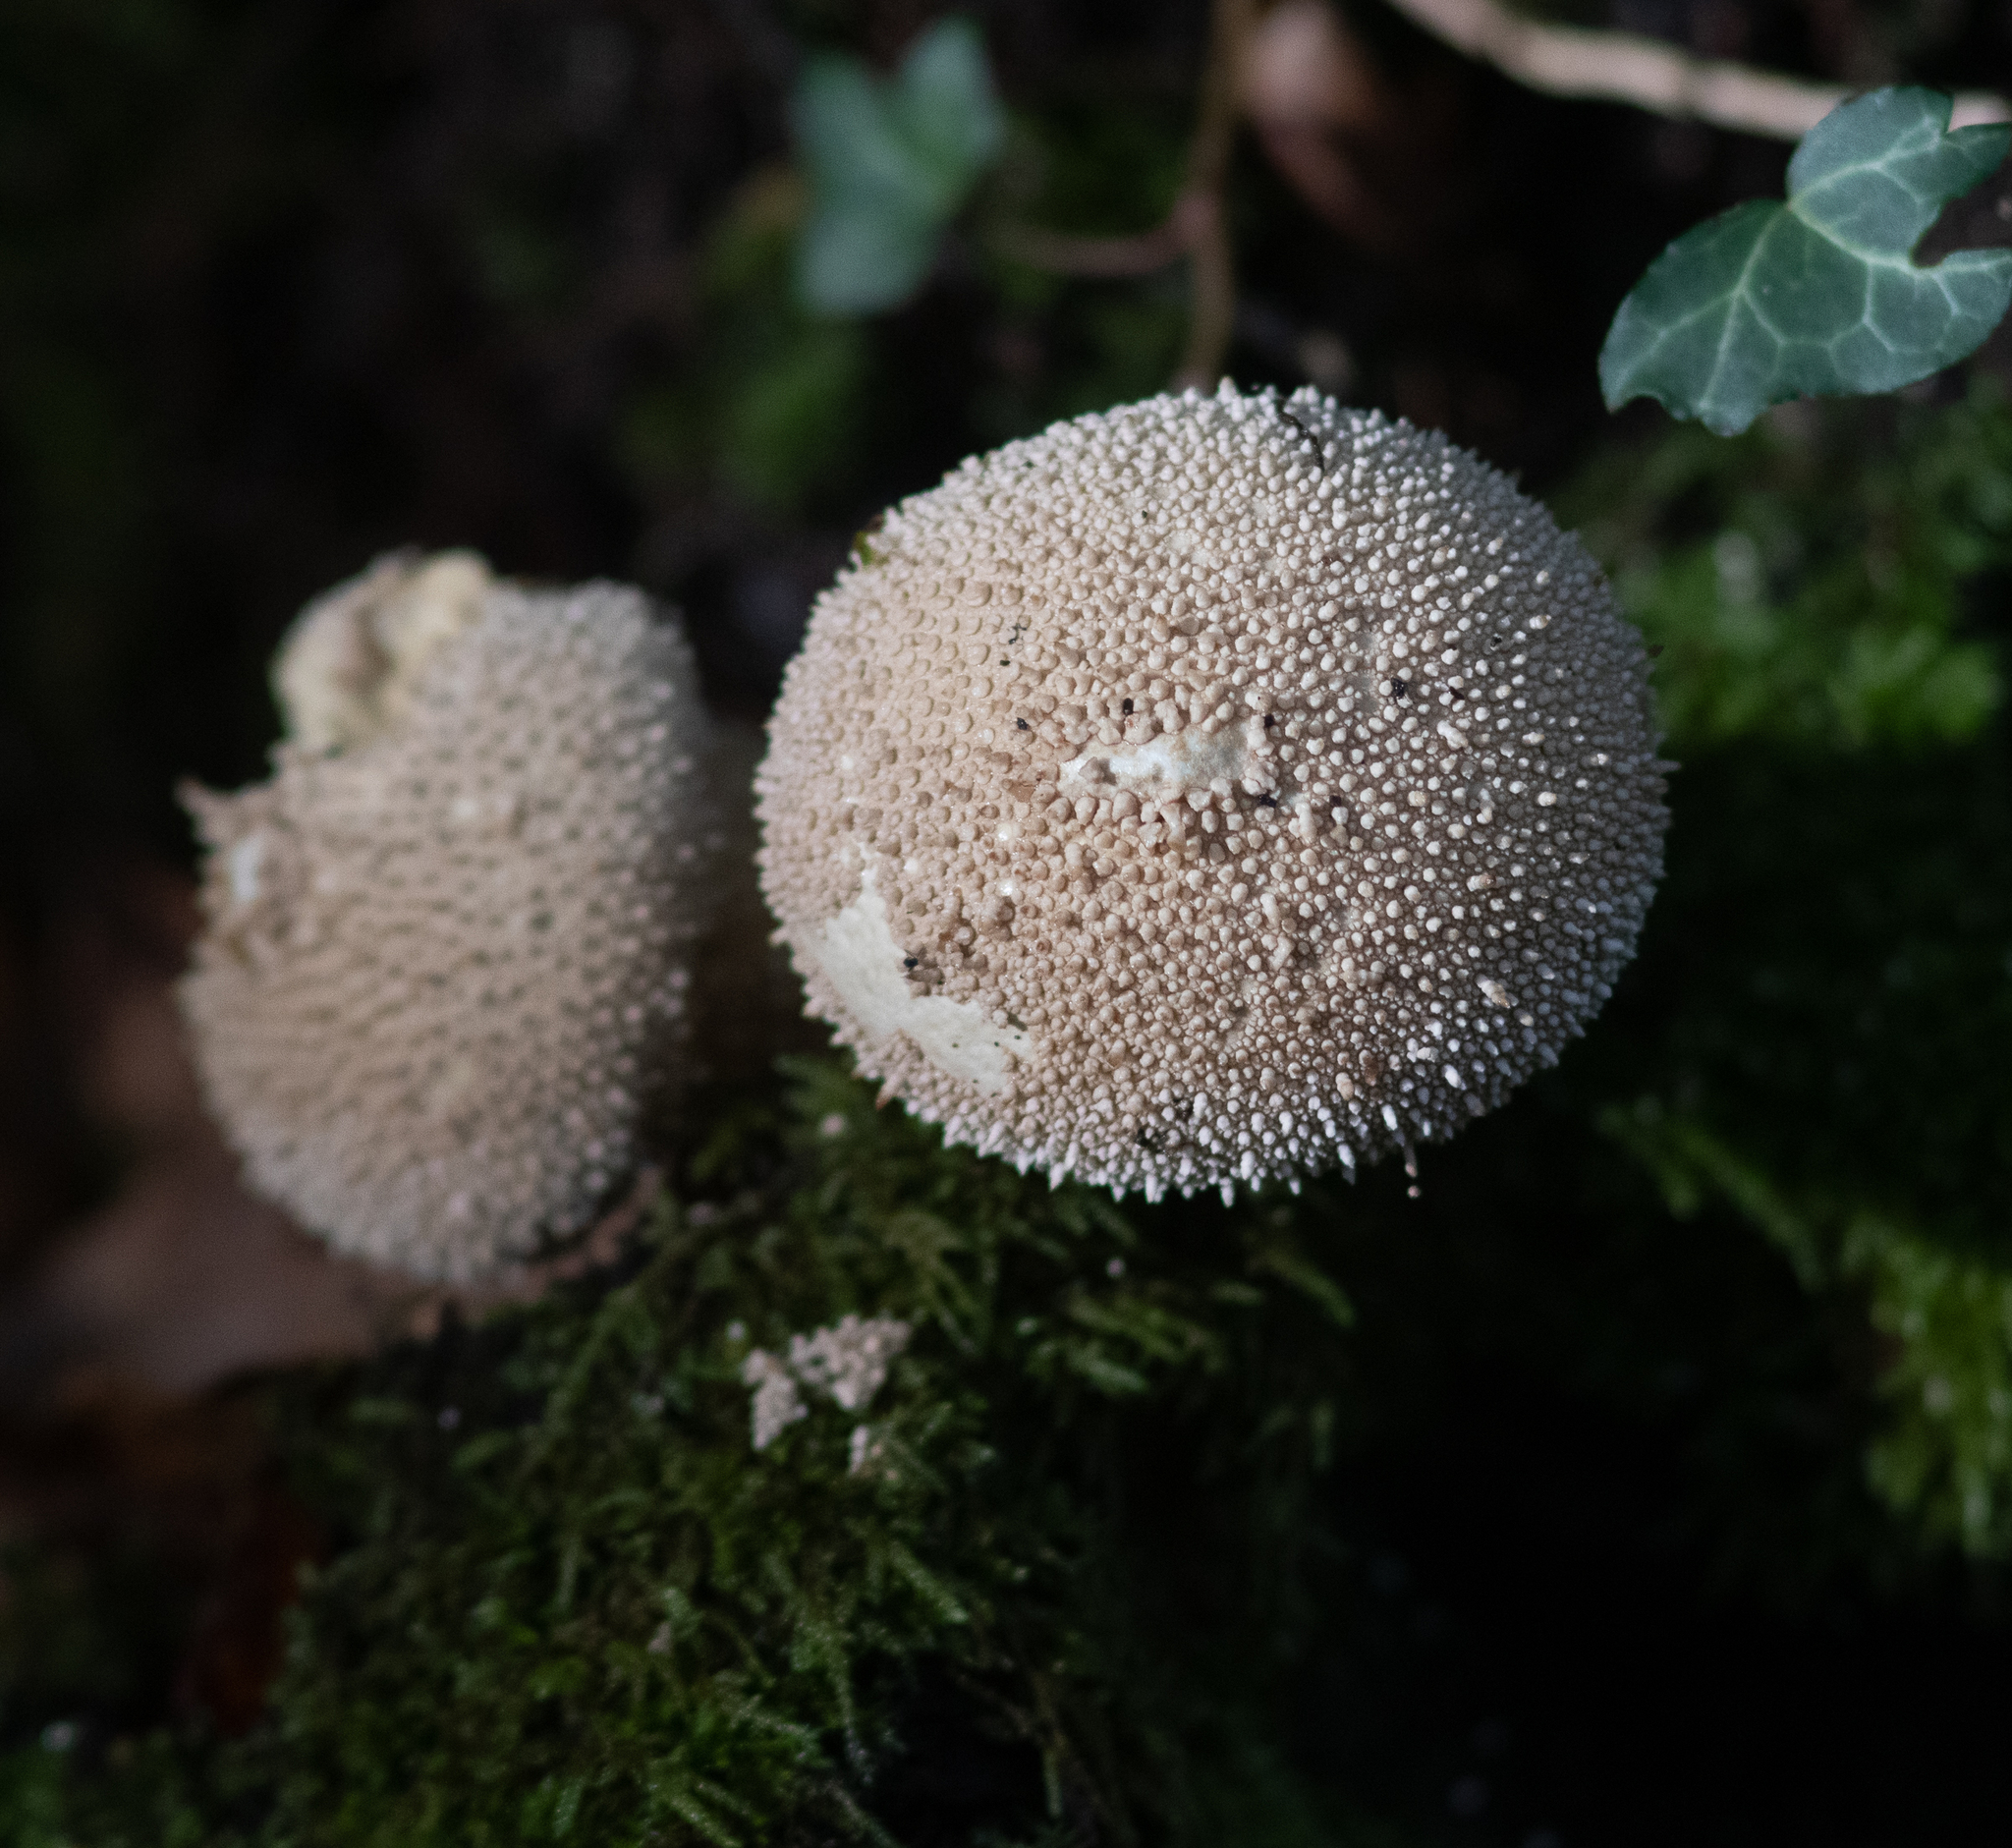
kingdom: Fungi
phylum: Basidiomycota
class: Agaricomycetes
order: Agaricales
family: Lycoperdaceae
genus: Lycoperdon
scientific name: Lycoperdon perlatum
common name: Common puffball
